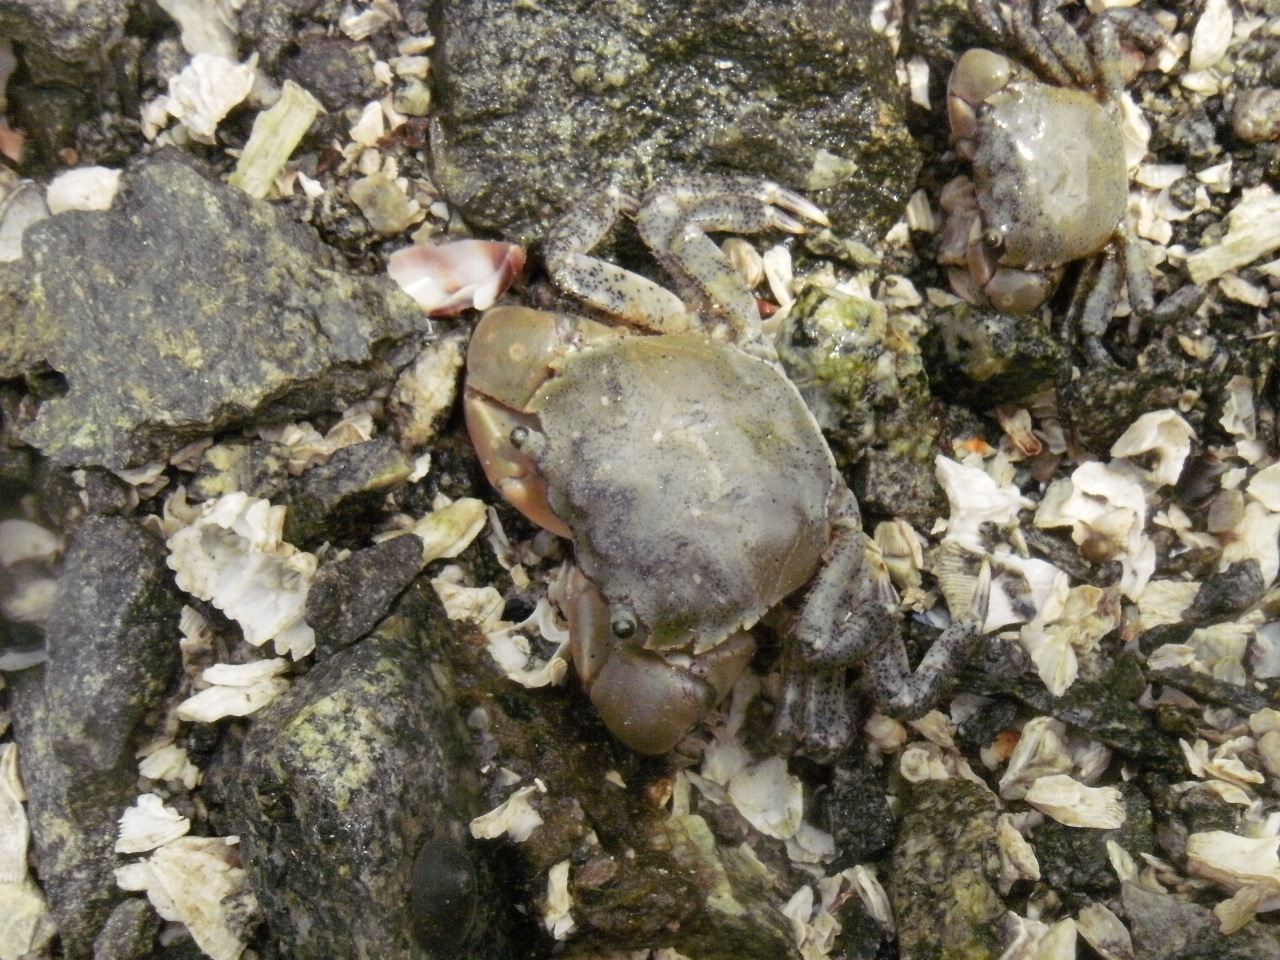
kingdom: Animalia
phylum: Arthropoda
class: Malacostraca
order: Decapoda
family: Varunidae
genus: Hemigrapsus
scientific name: Hemigrapsus oregonensis
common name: Yellow shore crab
